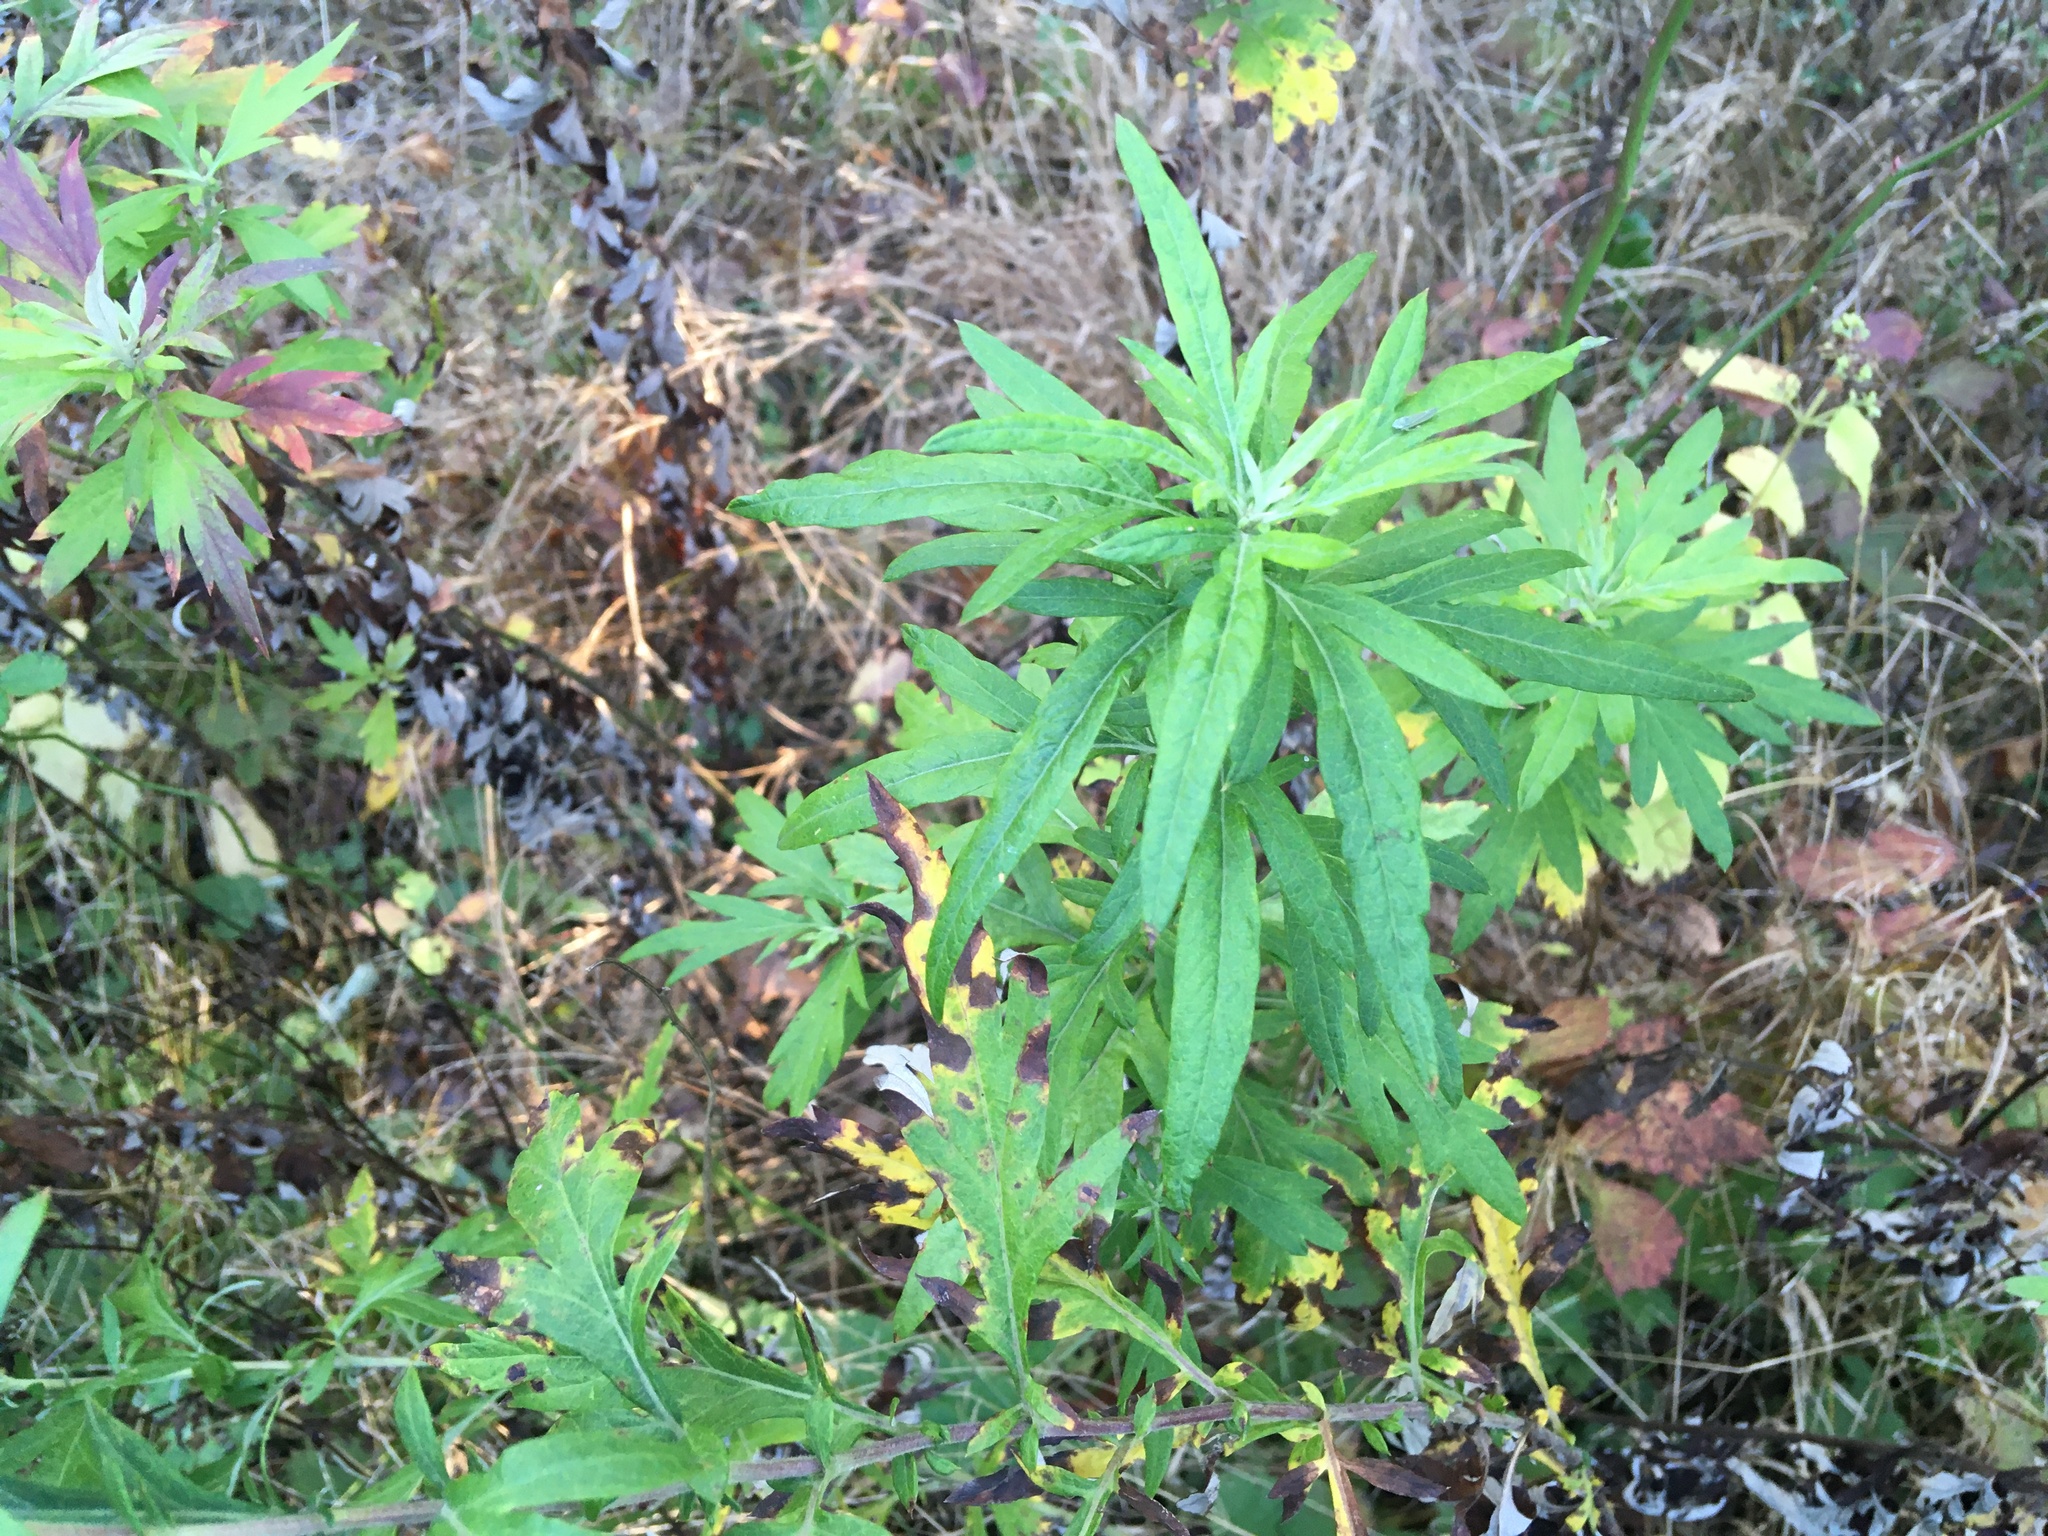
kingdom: Plantae
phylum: Tracheophyta
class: Magnoliopsida
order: Asterales
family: Asteraceae
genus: Artemisia
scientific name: Artemisia vulgaris
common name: Mugwort
